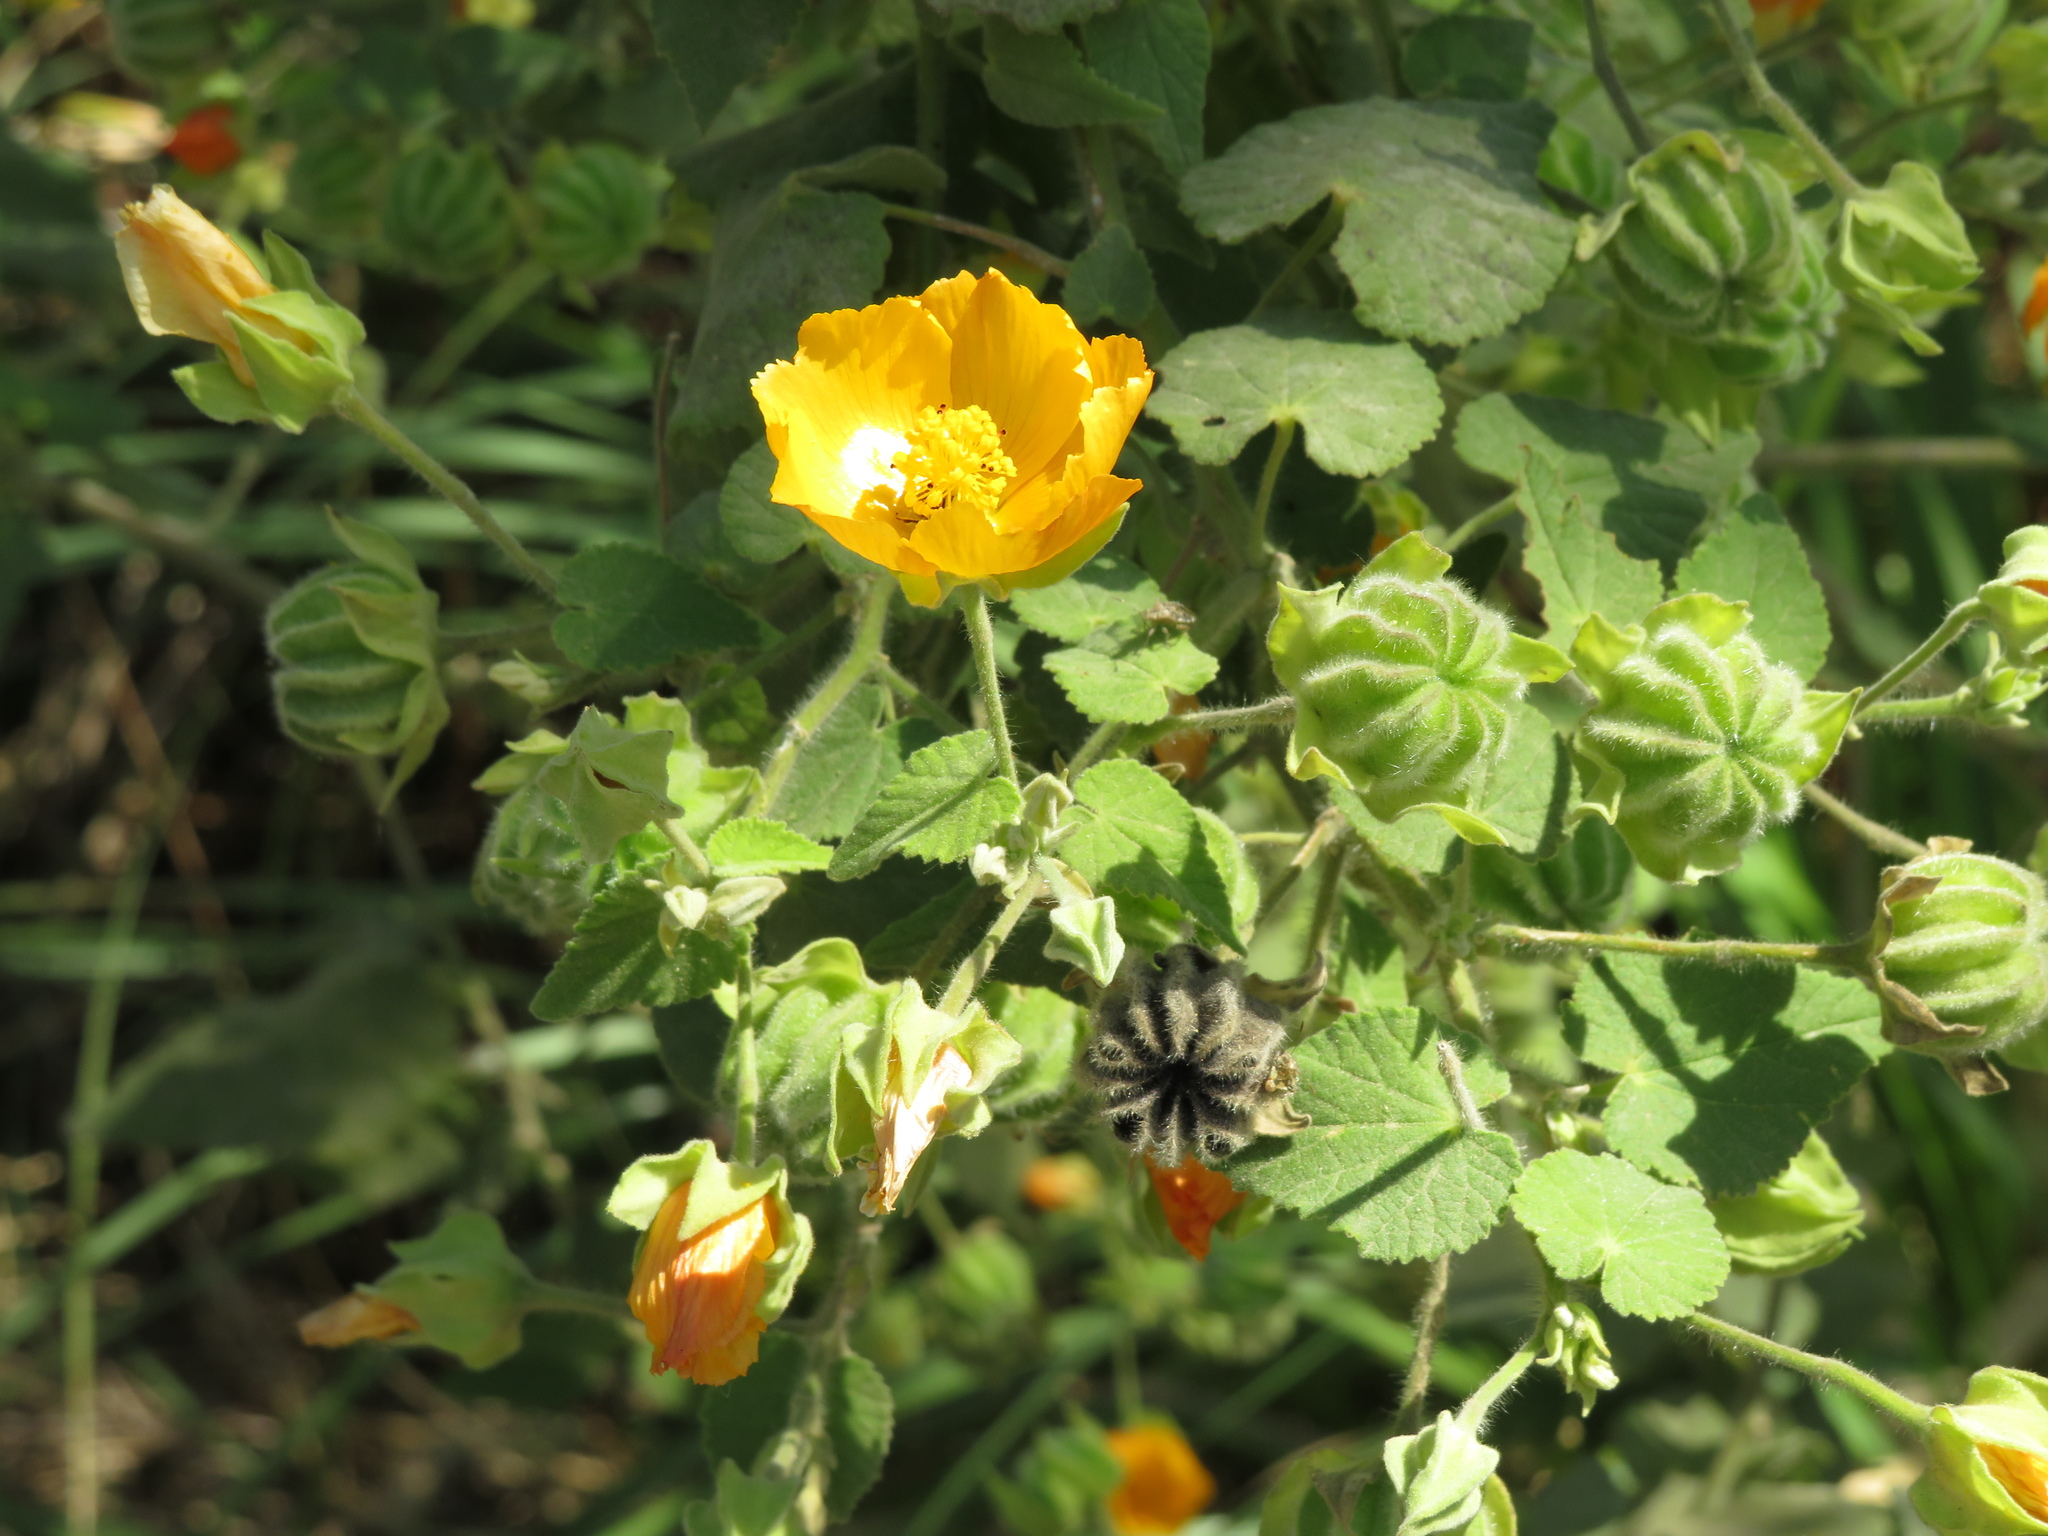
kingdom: Plantae
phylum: Tracheophyta
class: Magnoliopsida
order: Malvales
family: Malvaceae
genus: Abutilon
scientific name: Abutilon grandifolium
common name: Hairy abutilon
